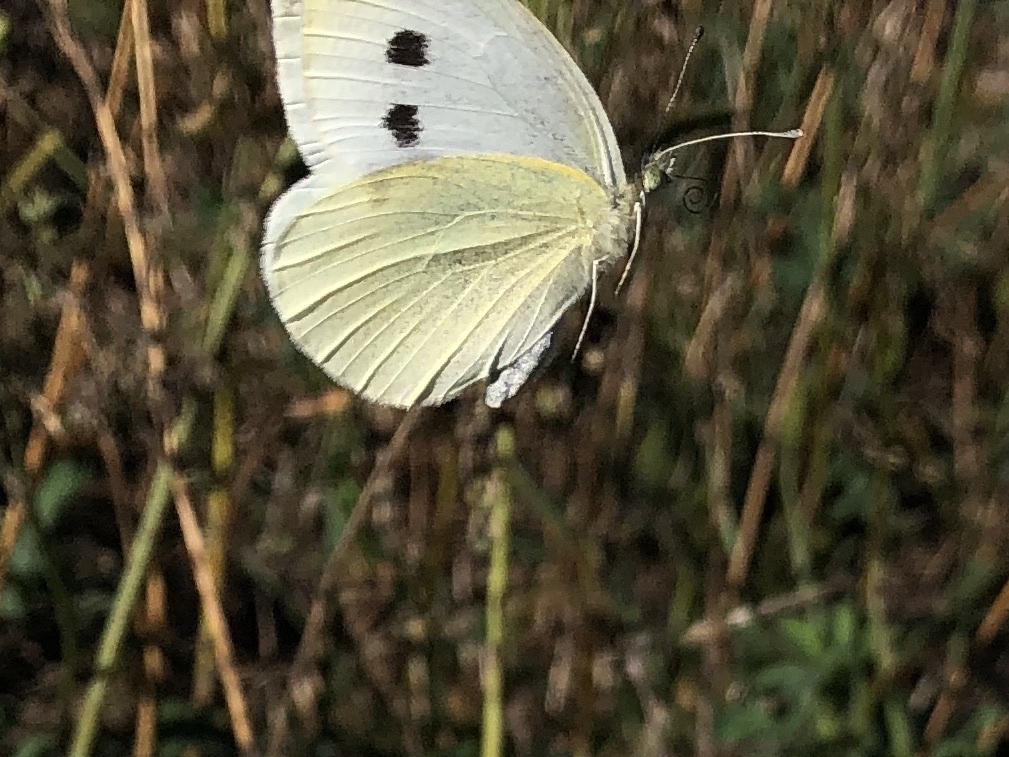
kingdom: Animalia
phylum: Arthropoda
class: Insecta
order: Lepidoptera
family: Pieridae
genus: Pieris
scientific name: Pieris rapae
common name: Small white
